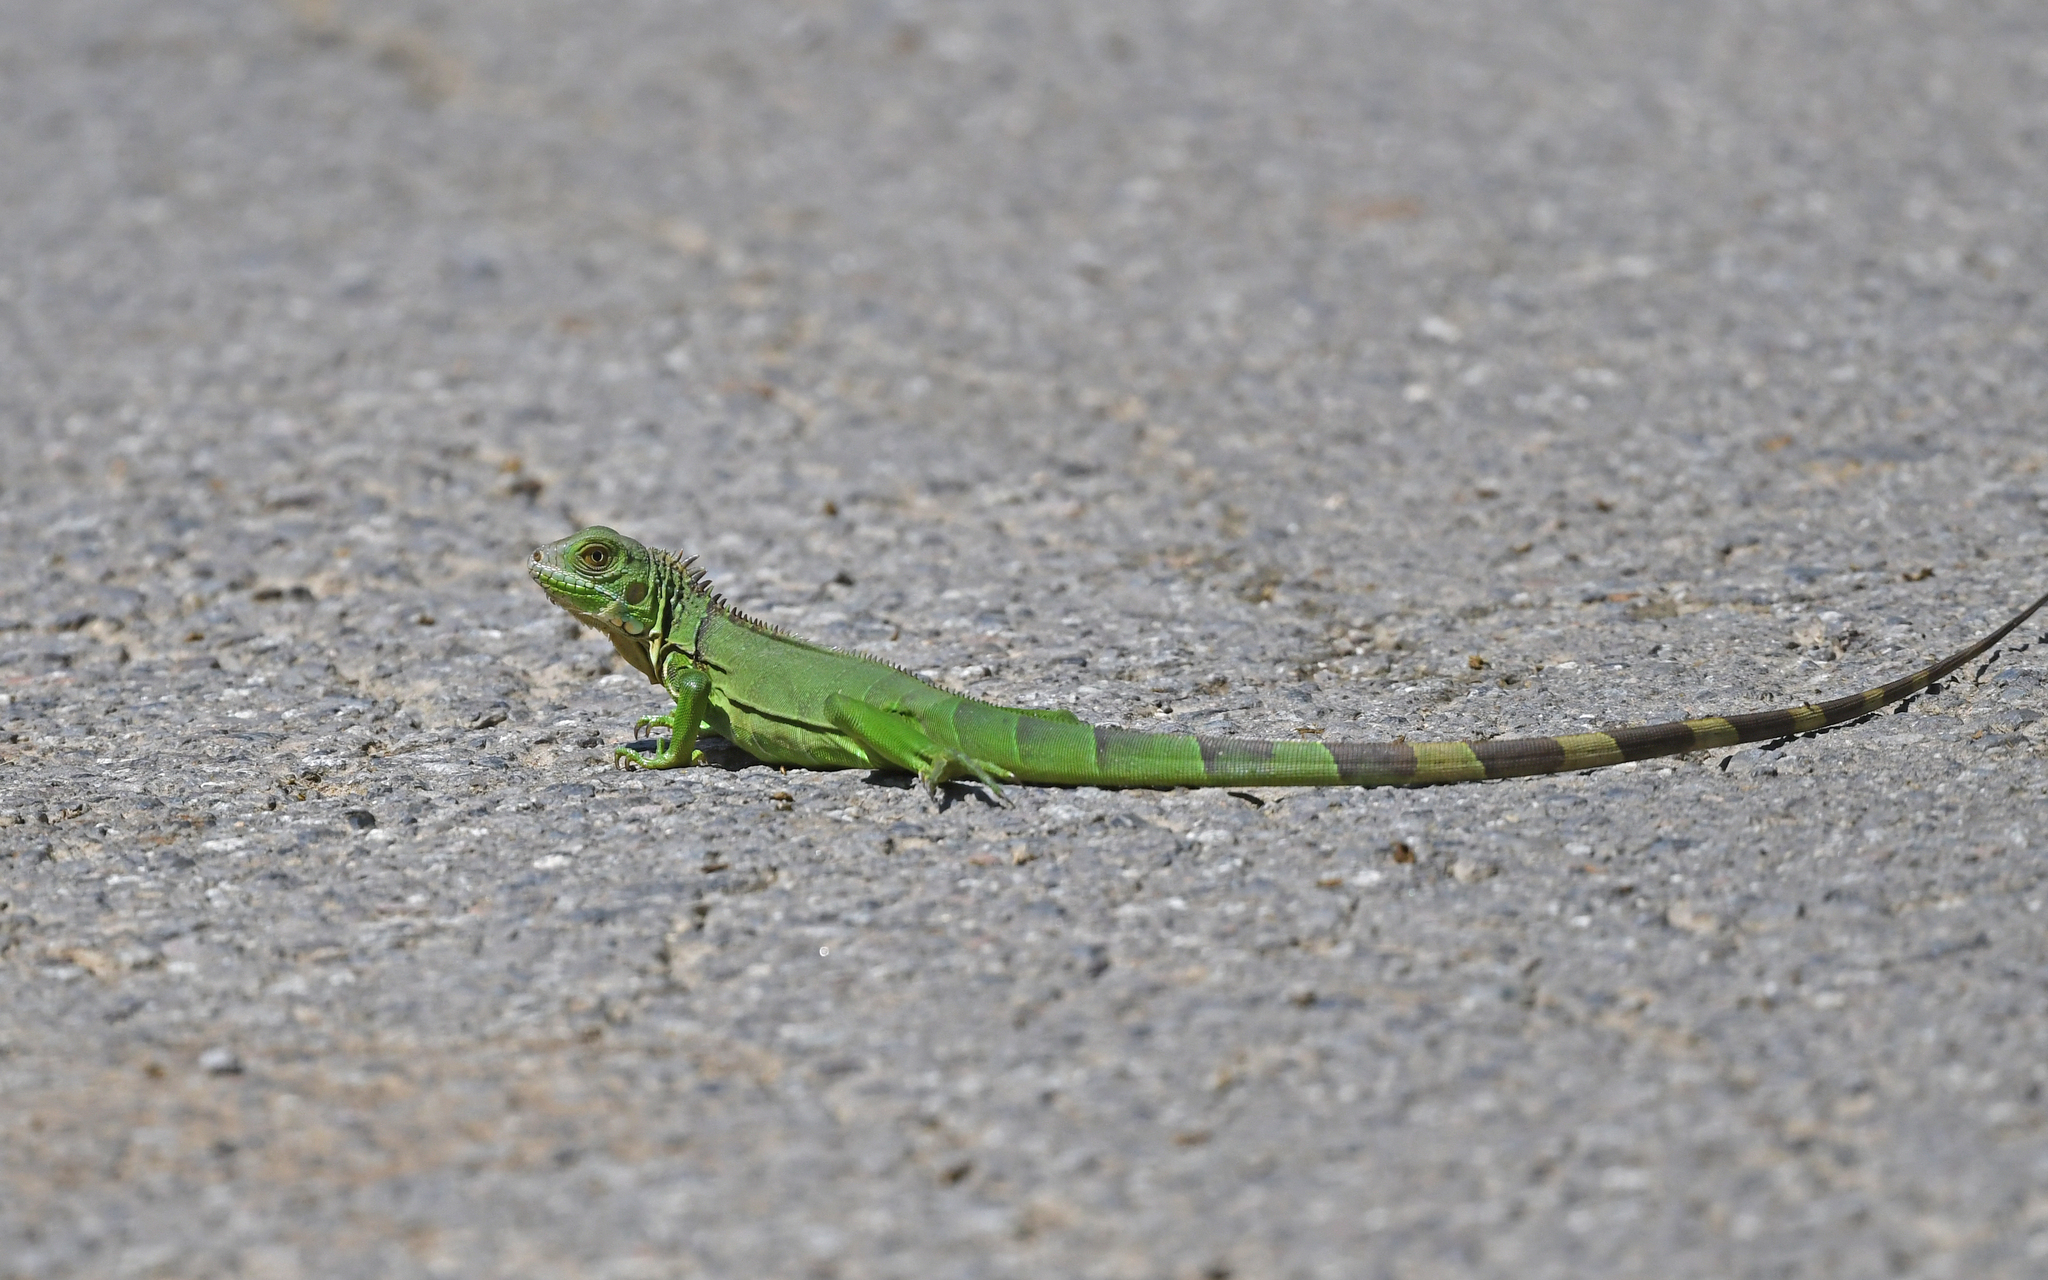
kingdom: Animalia
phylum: Chordata
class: Squamata
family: Iguanidae
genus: Iguana
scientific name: Iguana iguana
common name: Green iguana
